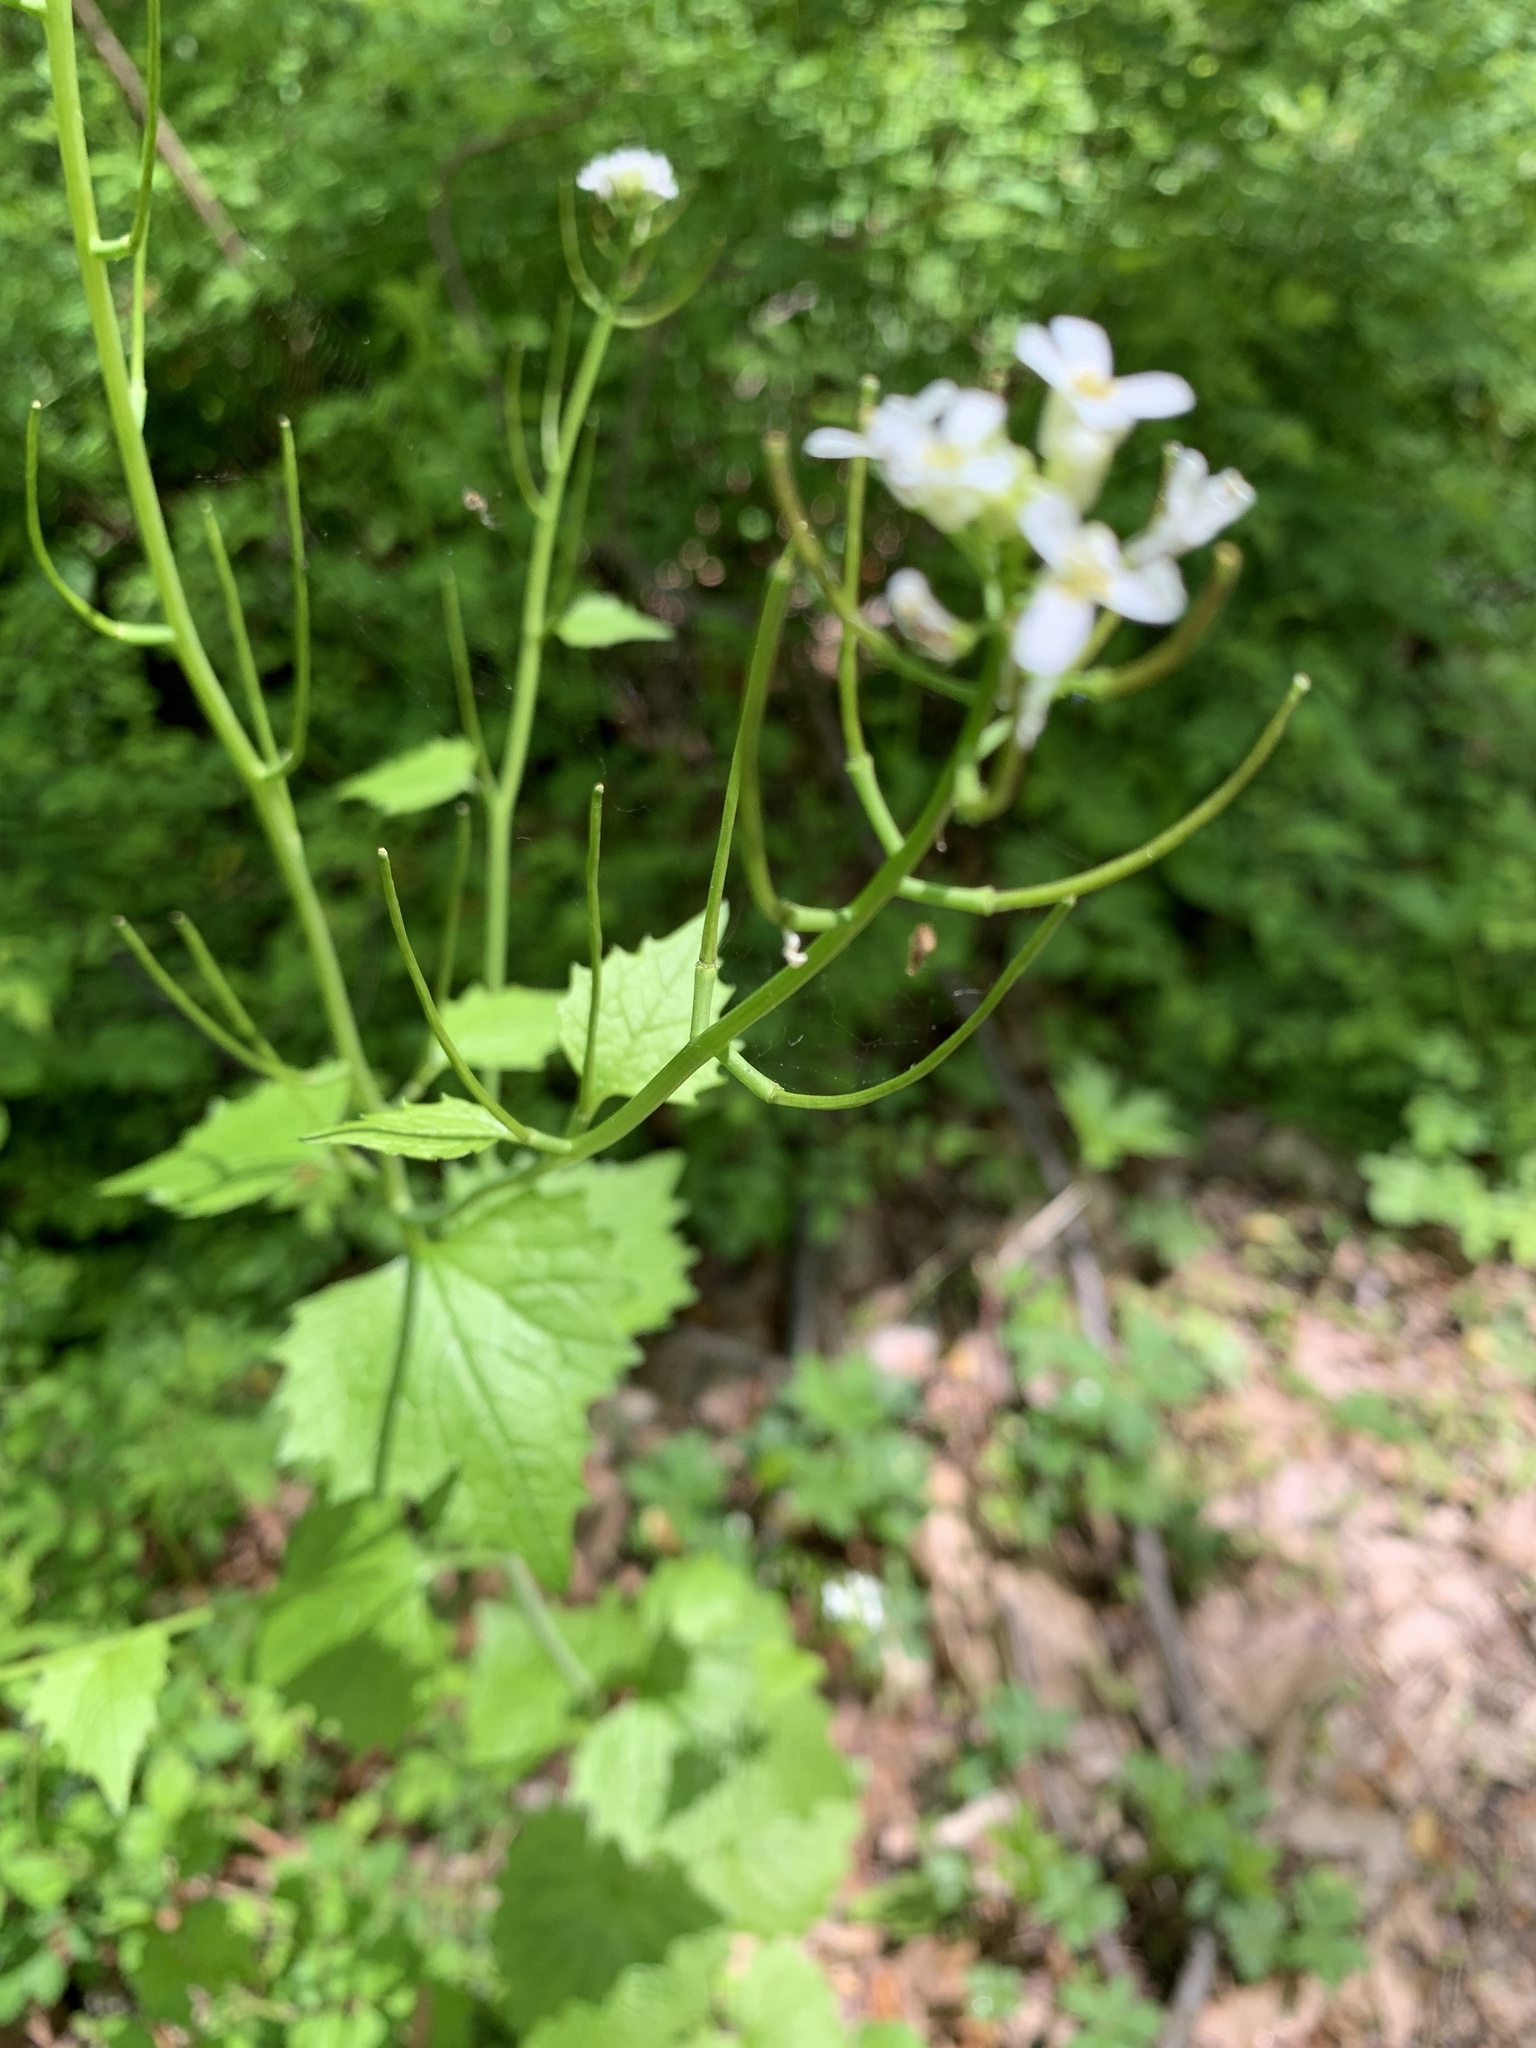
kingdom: Plantae
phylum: Tracheophyta
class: Magnoliopsida
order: Brassicales
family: Brassicaceae
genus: Alliaria
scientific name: Alliaria petiolata
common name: Garlic mustard
